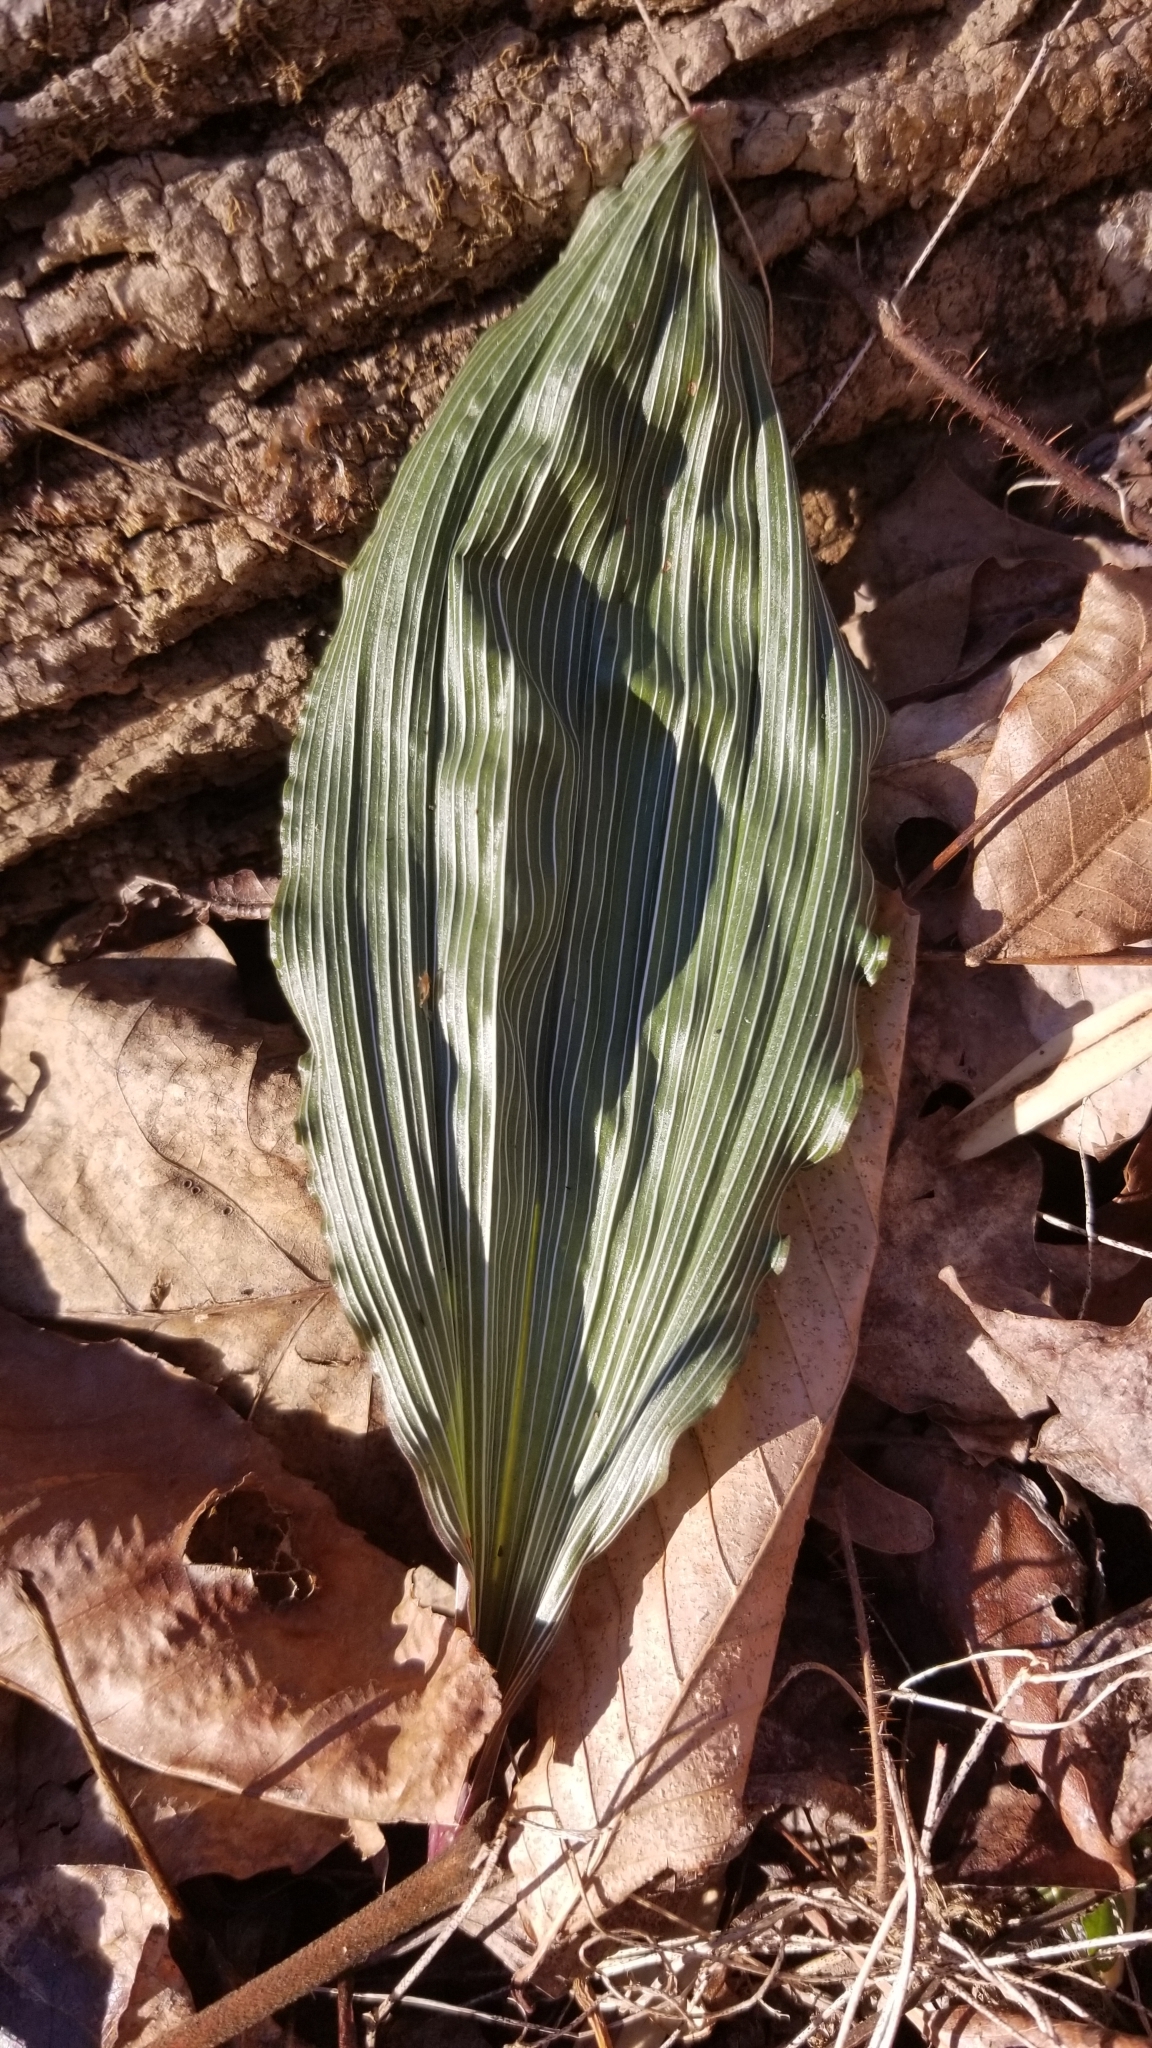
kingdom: Plantae
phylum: Tracheophyta
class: Liliopsida
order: Asparagales
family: Orchidaceae
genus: Aplectrum
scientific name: Aplectrum hyemale
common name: Adam-and-eve
